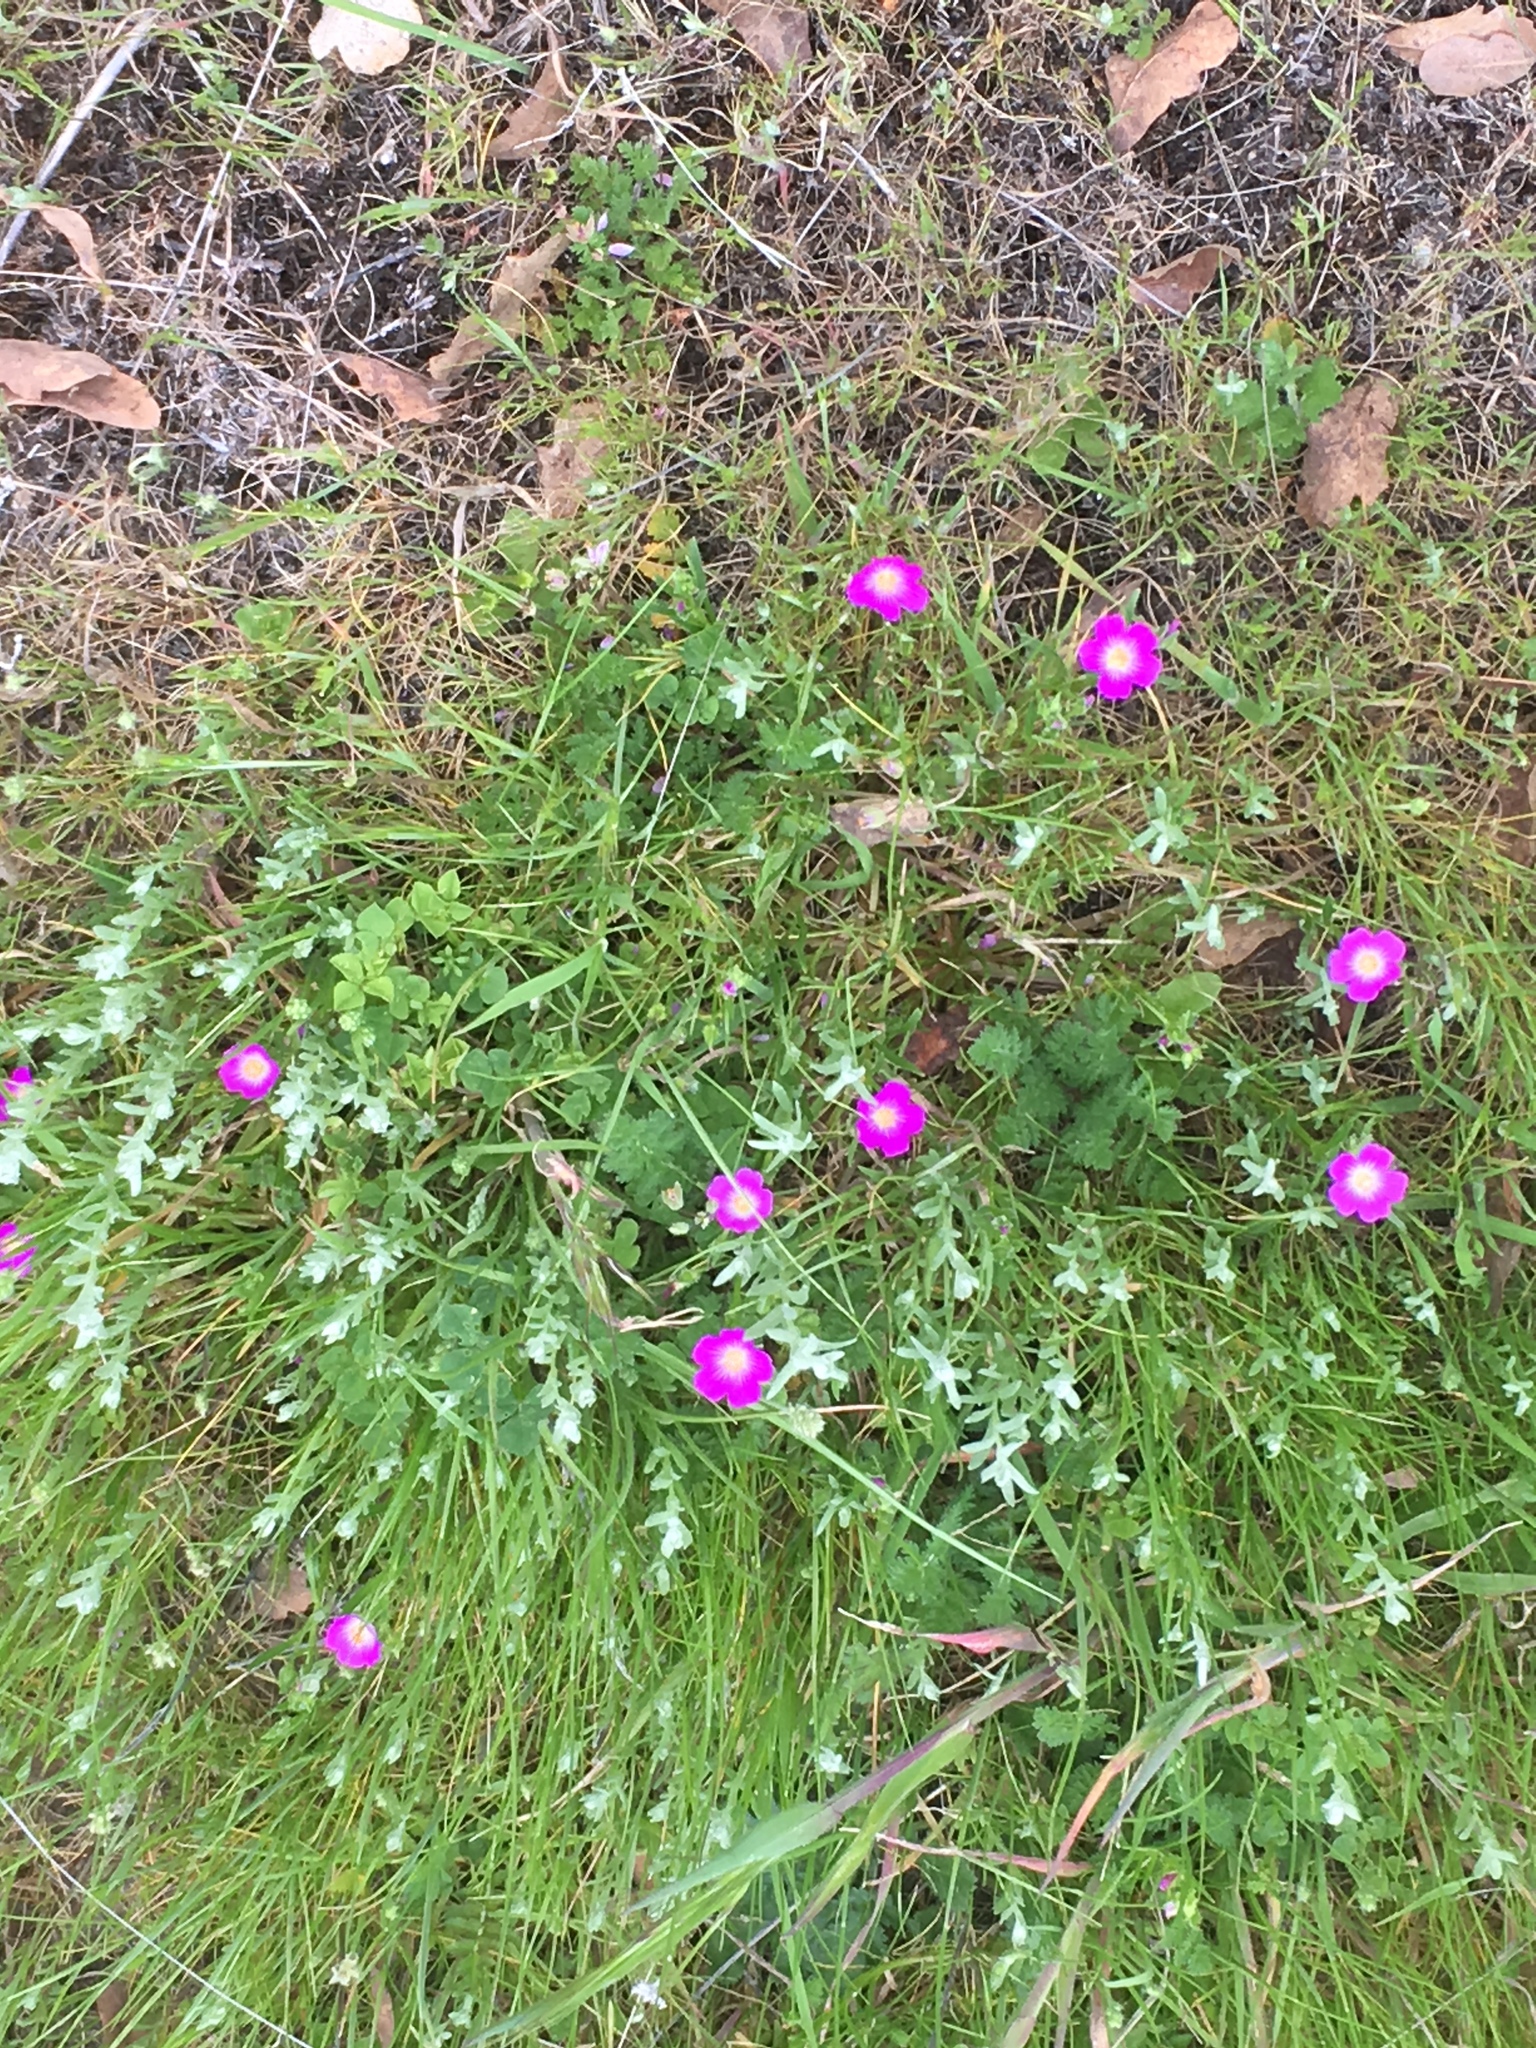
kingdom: Plantae
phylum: Tracheophyta
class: Magnoliopsida
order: Caryophyllales
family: Montiaceae
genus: Calandrinia
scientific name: Calandrinia menziesii
